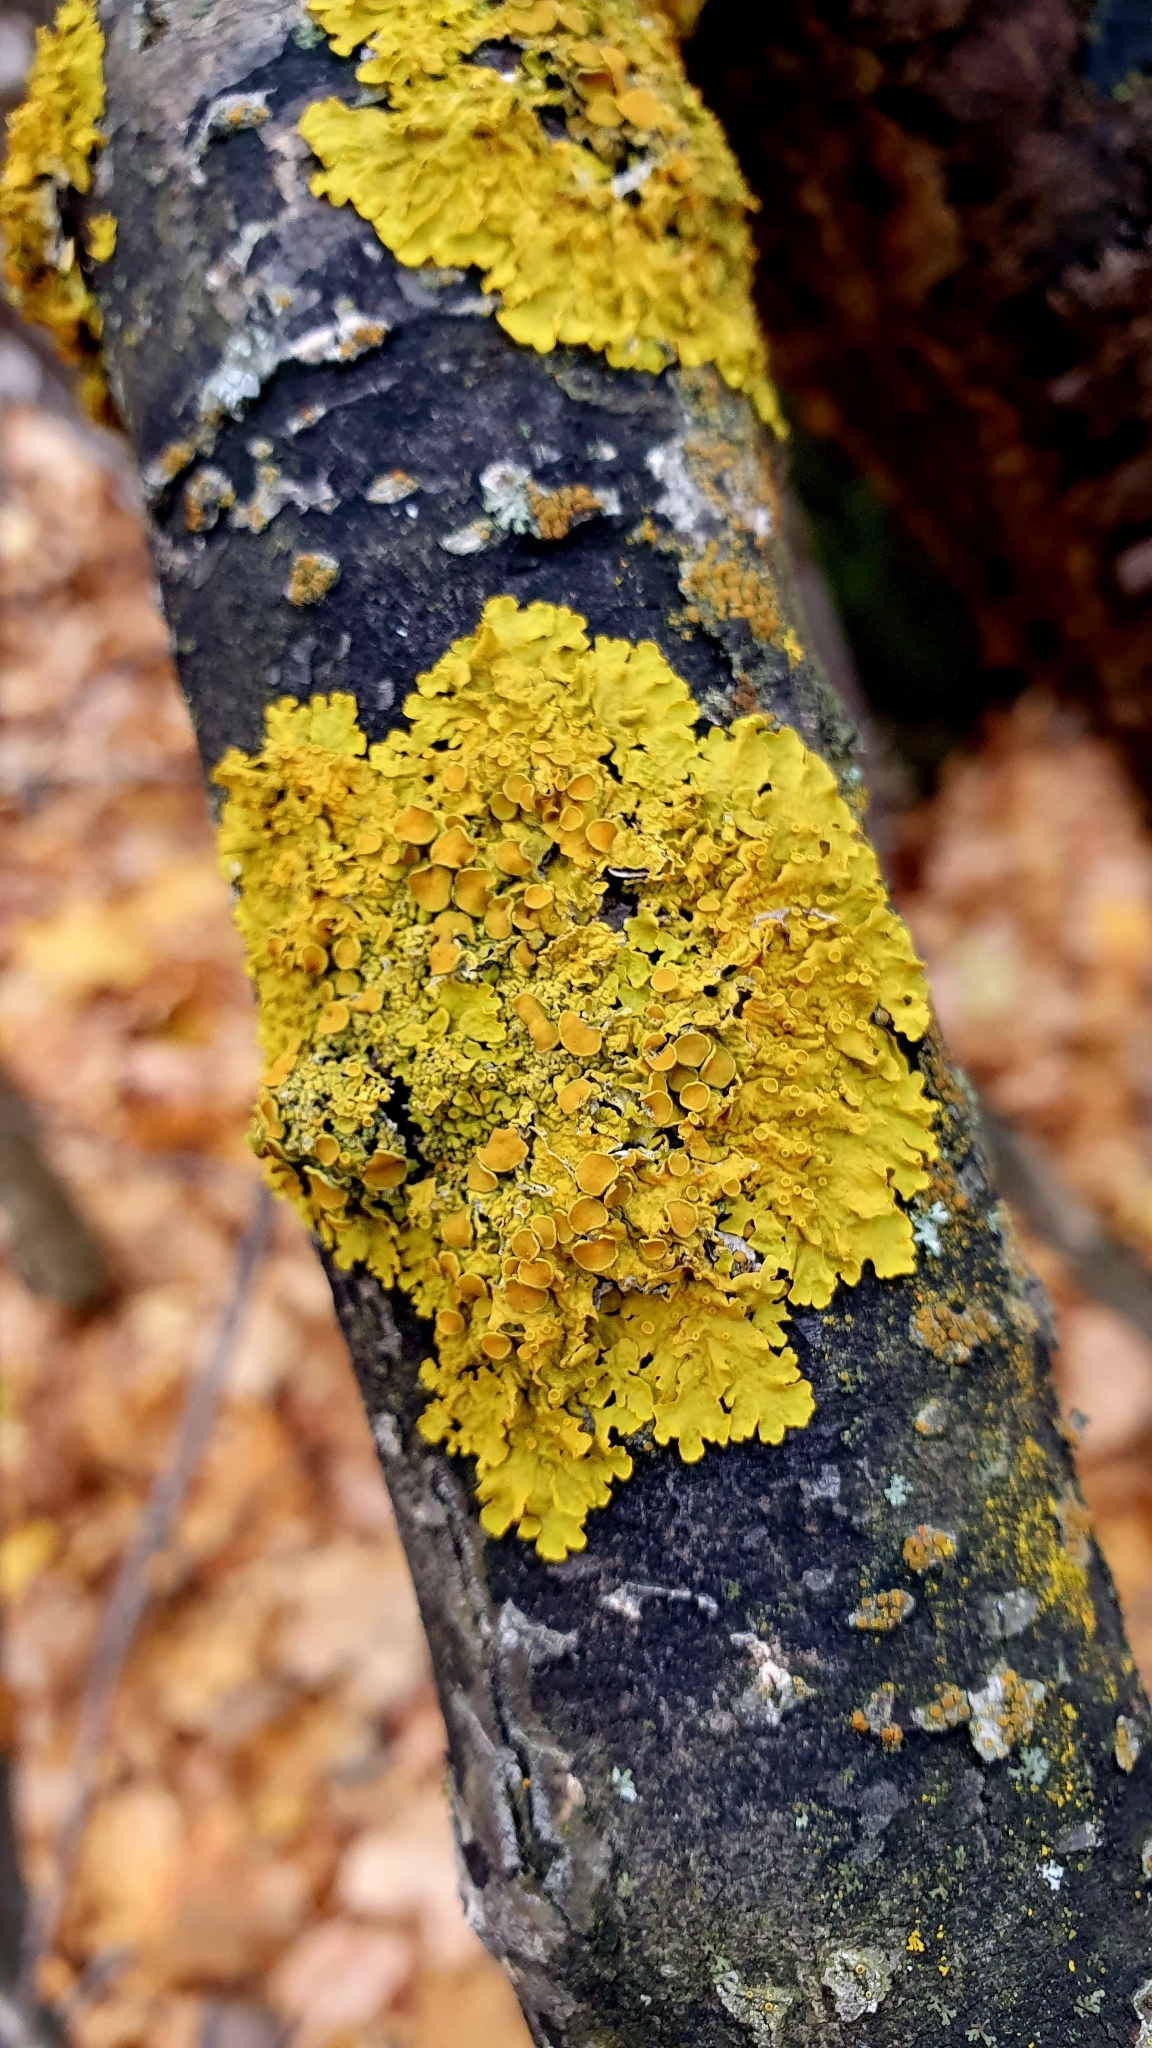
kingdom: Fungi
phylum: Ascomycota
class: Lecanoromycetes
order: Teloschistales
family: Teloschistaceae
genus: Xanthoria
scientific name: Xanthoria parietina
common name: Common orange lichen
